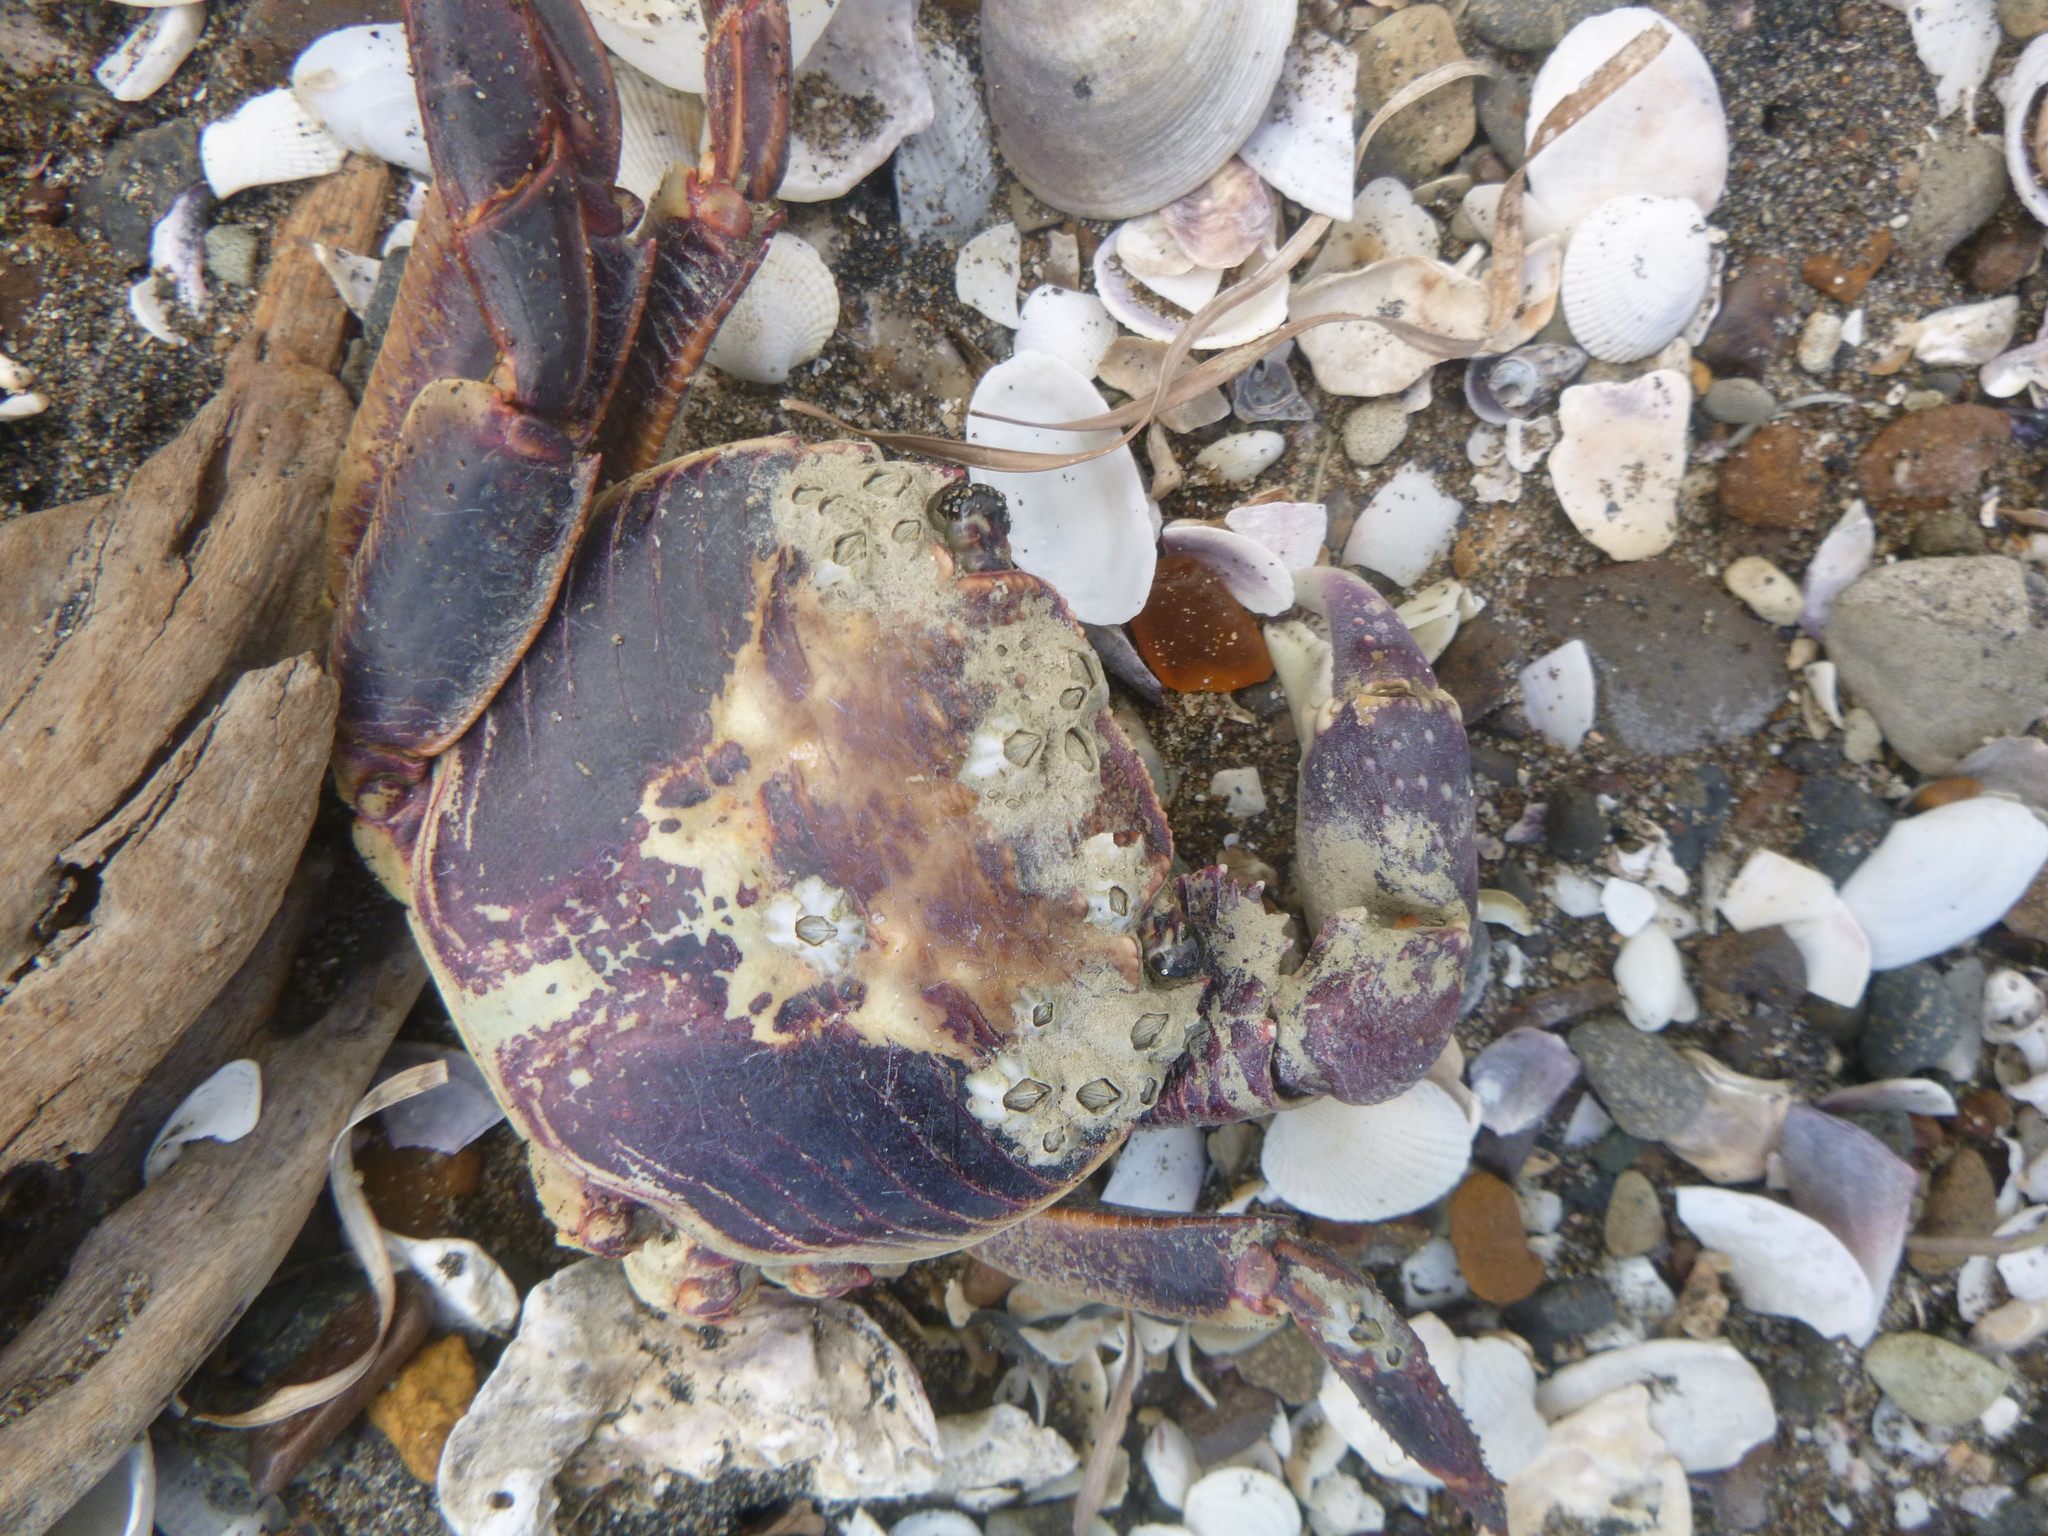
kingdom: Animalia
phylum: Arthropoda
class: Malacostraca
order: Decapoda
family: Grapsidae
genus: Leptograpsus
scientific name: Leptograpsus variegatus
